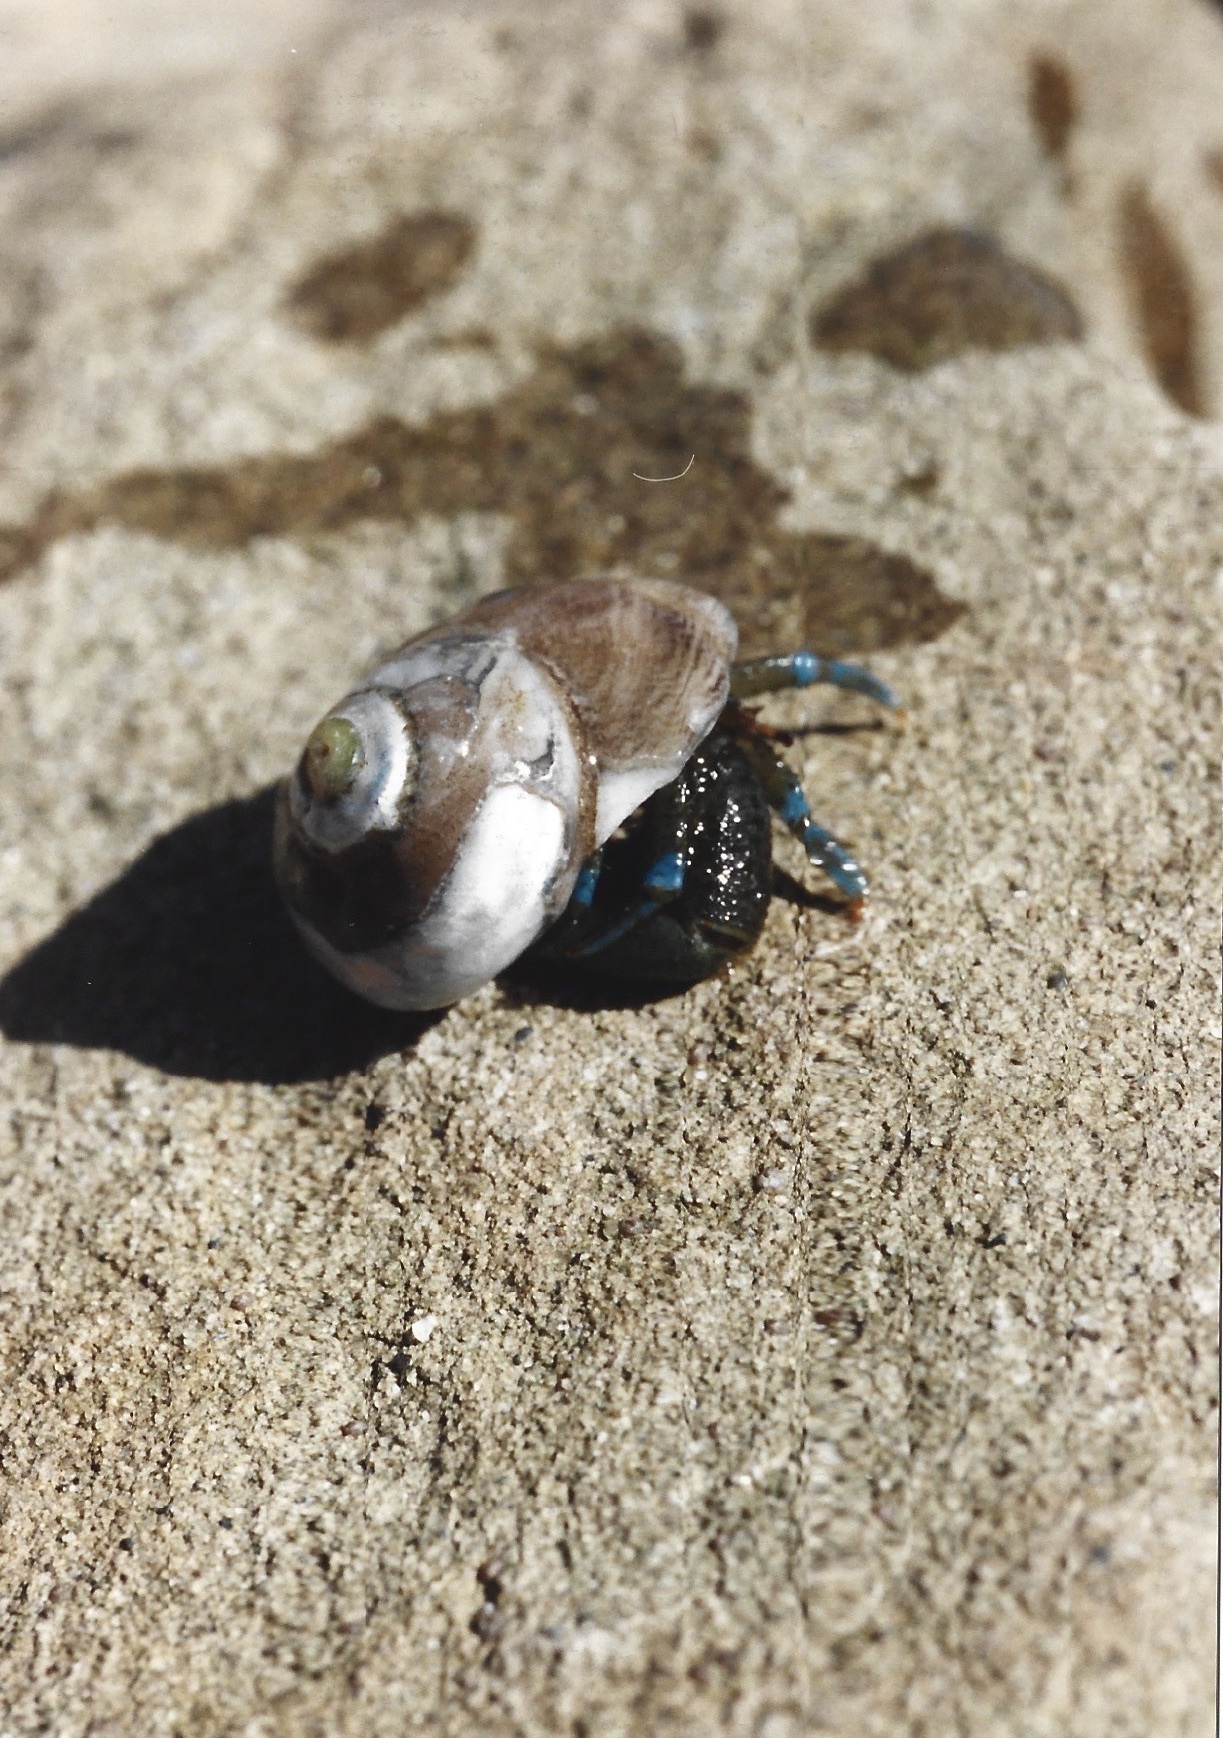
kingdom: Animalia
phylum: Arthropoda
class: Malacostraca
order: Decapoda
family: Paguridae
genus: Pagurus
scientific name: Pagurus samuelis
